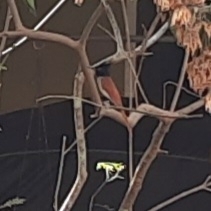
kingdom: Animalia
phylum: Chordata
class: Aves
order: Passeriformes
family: Monarchidae
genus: Terpsiphone
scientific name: Terpsiphone paradisi
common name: Indian paradise flycatcher
